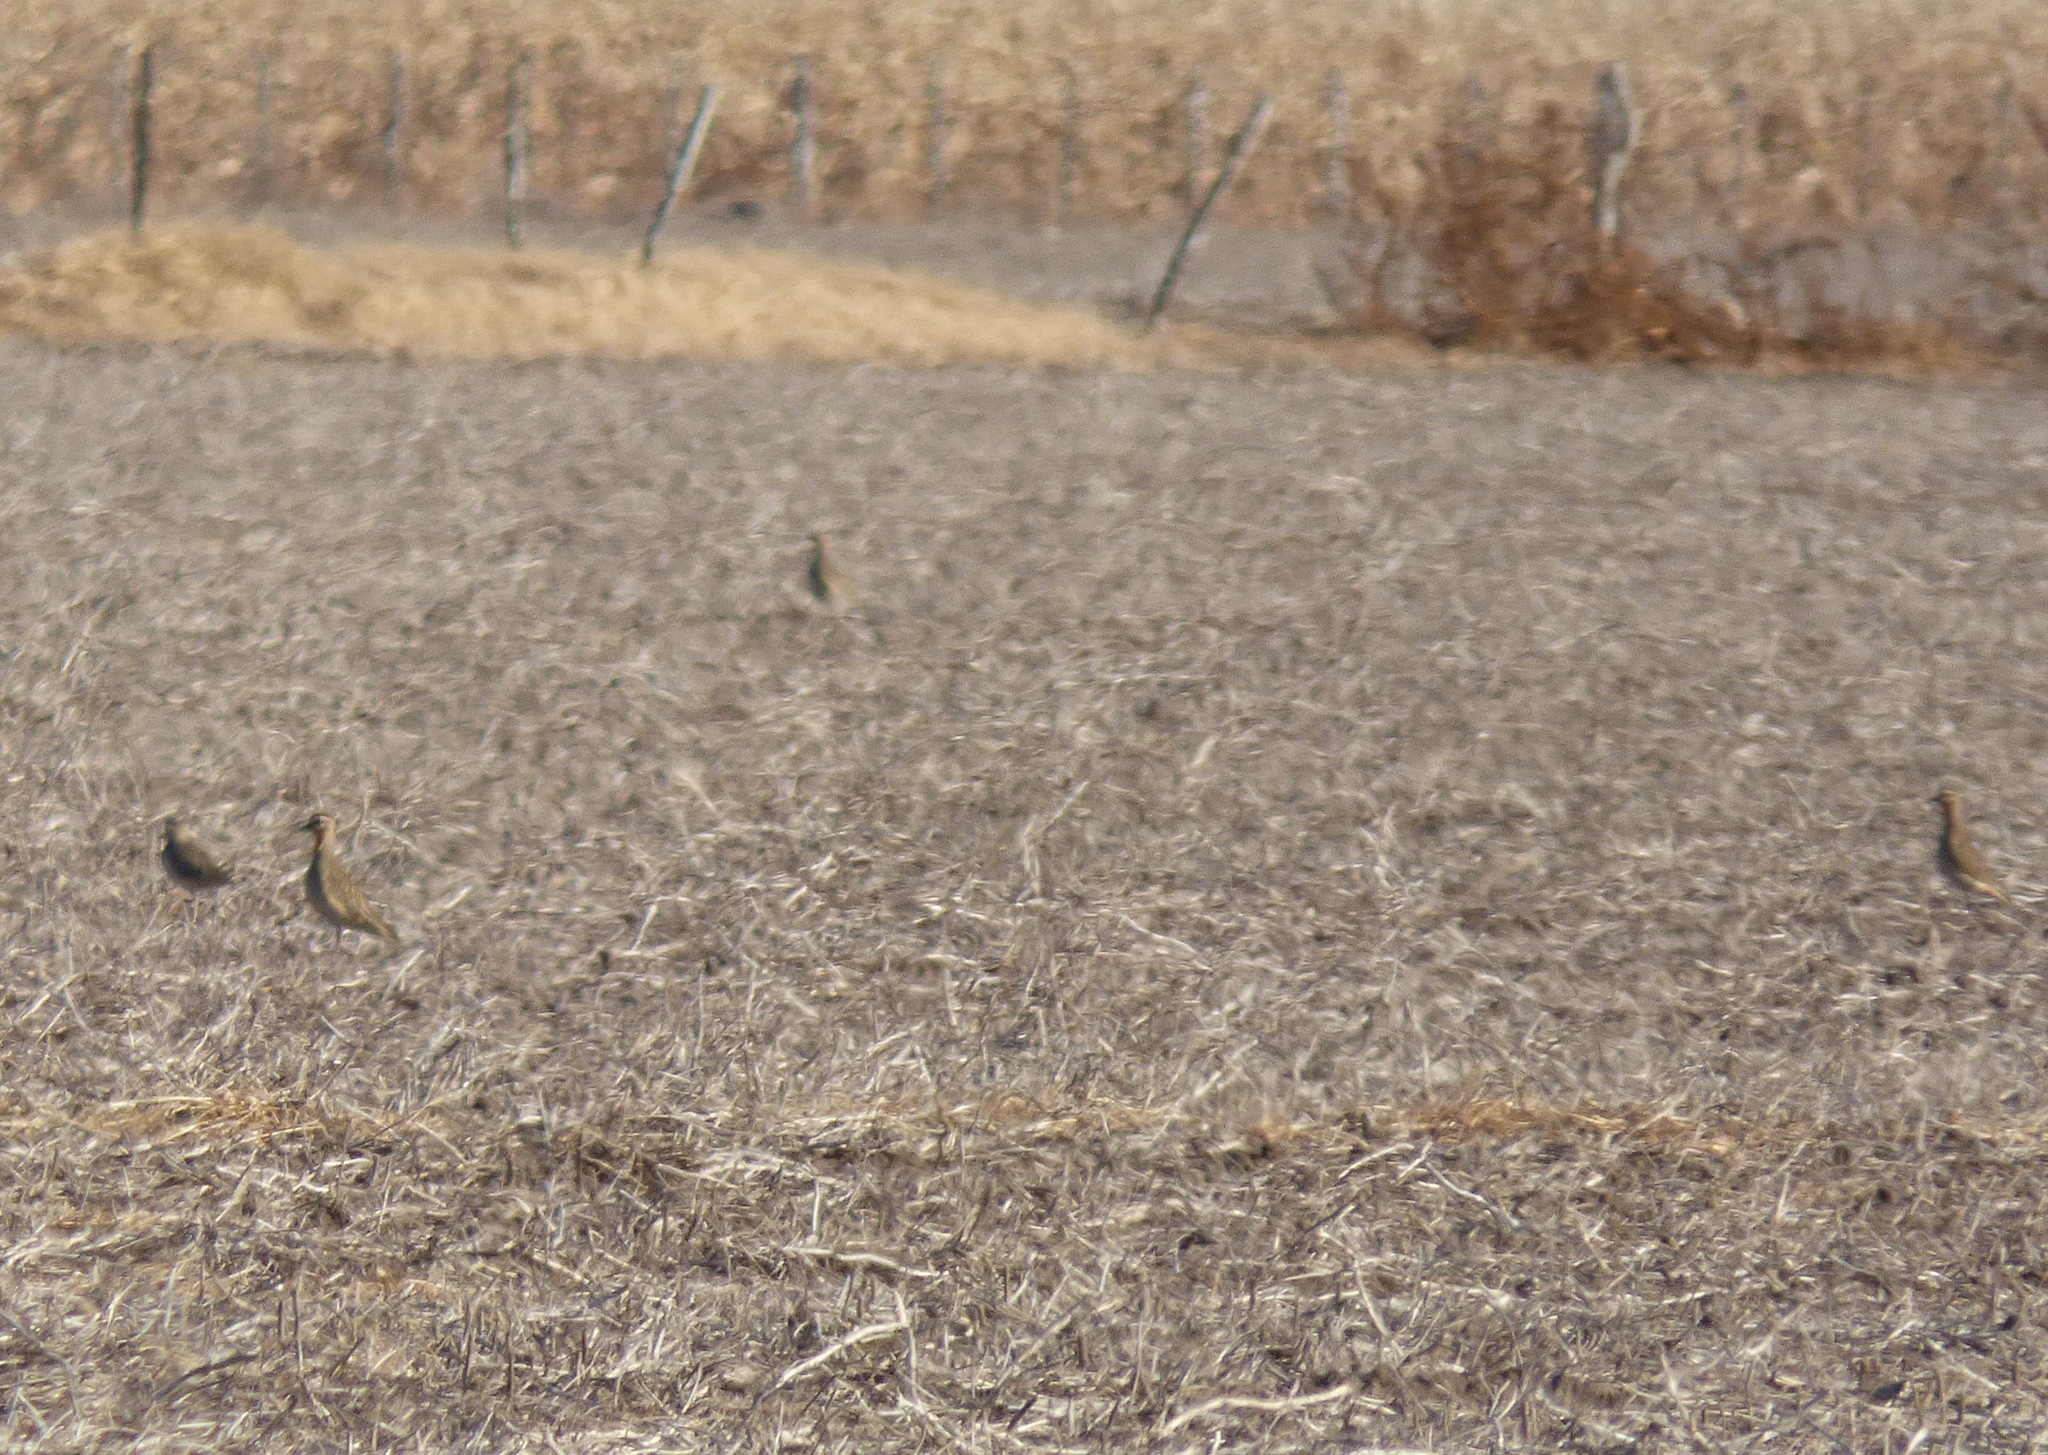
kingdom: Animalia
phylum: Chordata
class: Aves
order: Charadriiformes
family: Charadriidae
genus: Oreopholus
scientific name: Oreopholus ruficollis
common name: Tawny-throated dotterel
